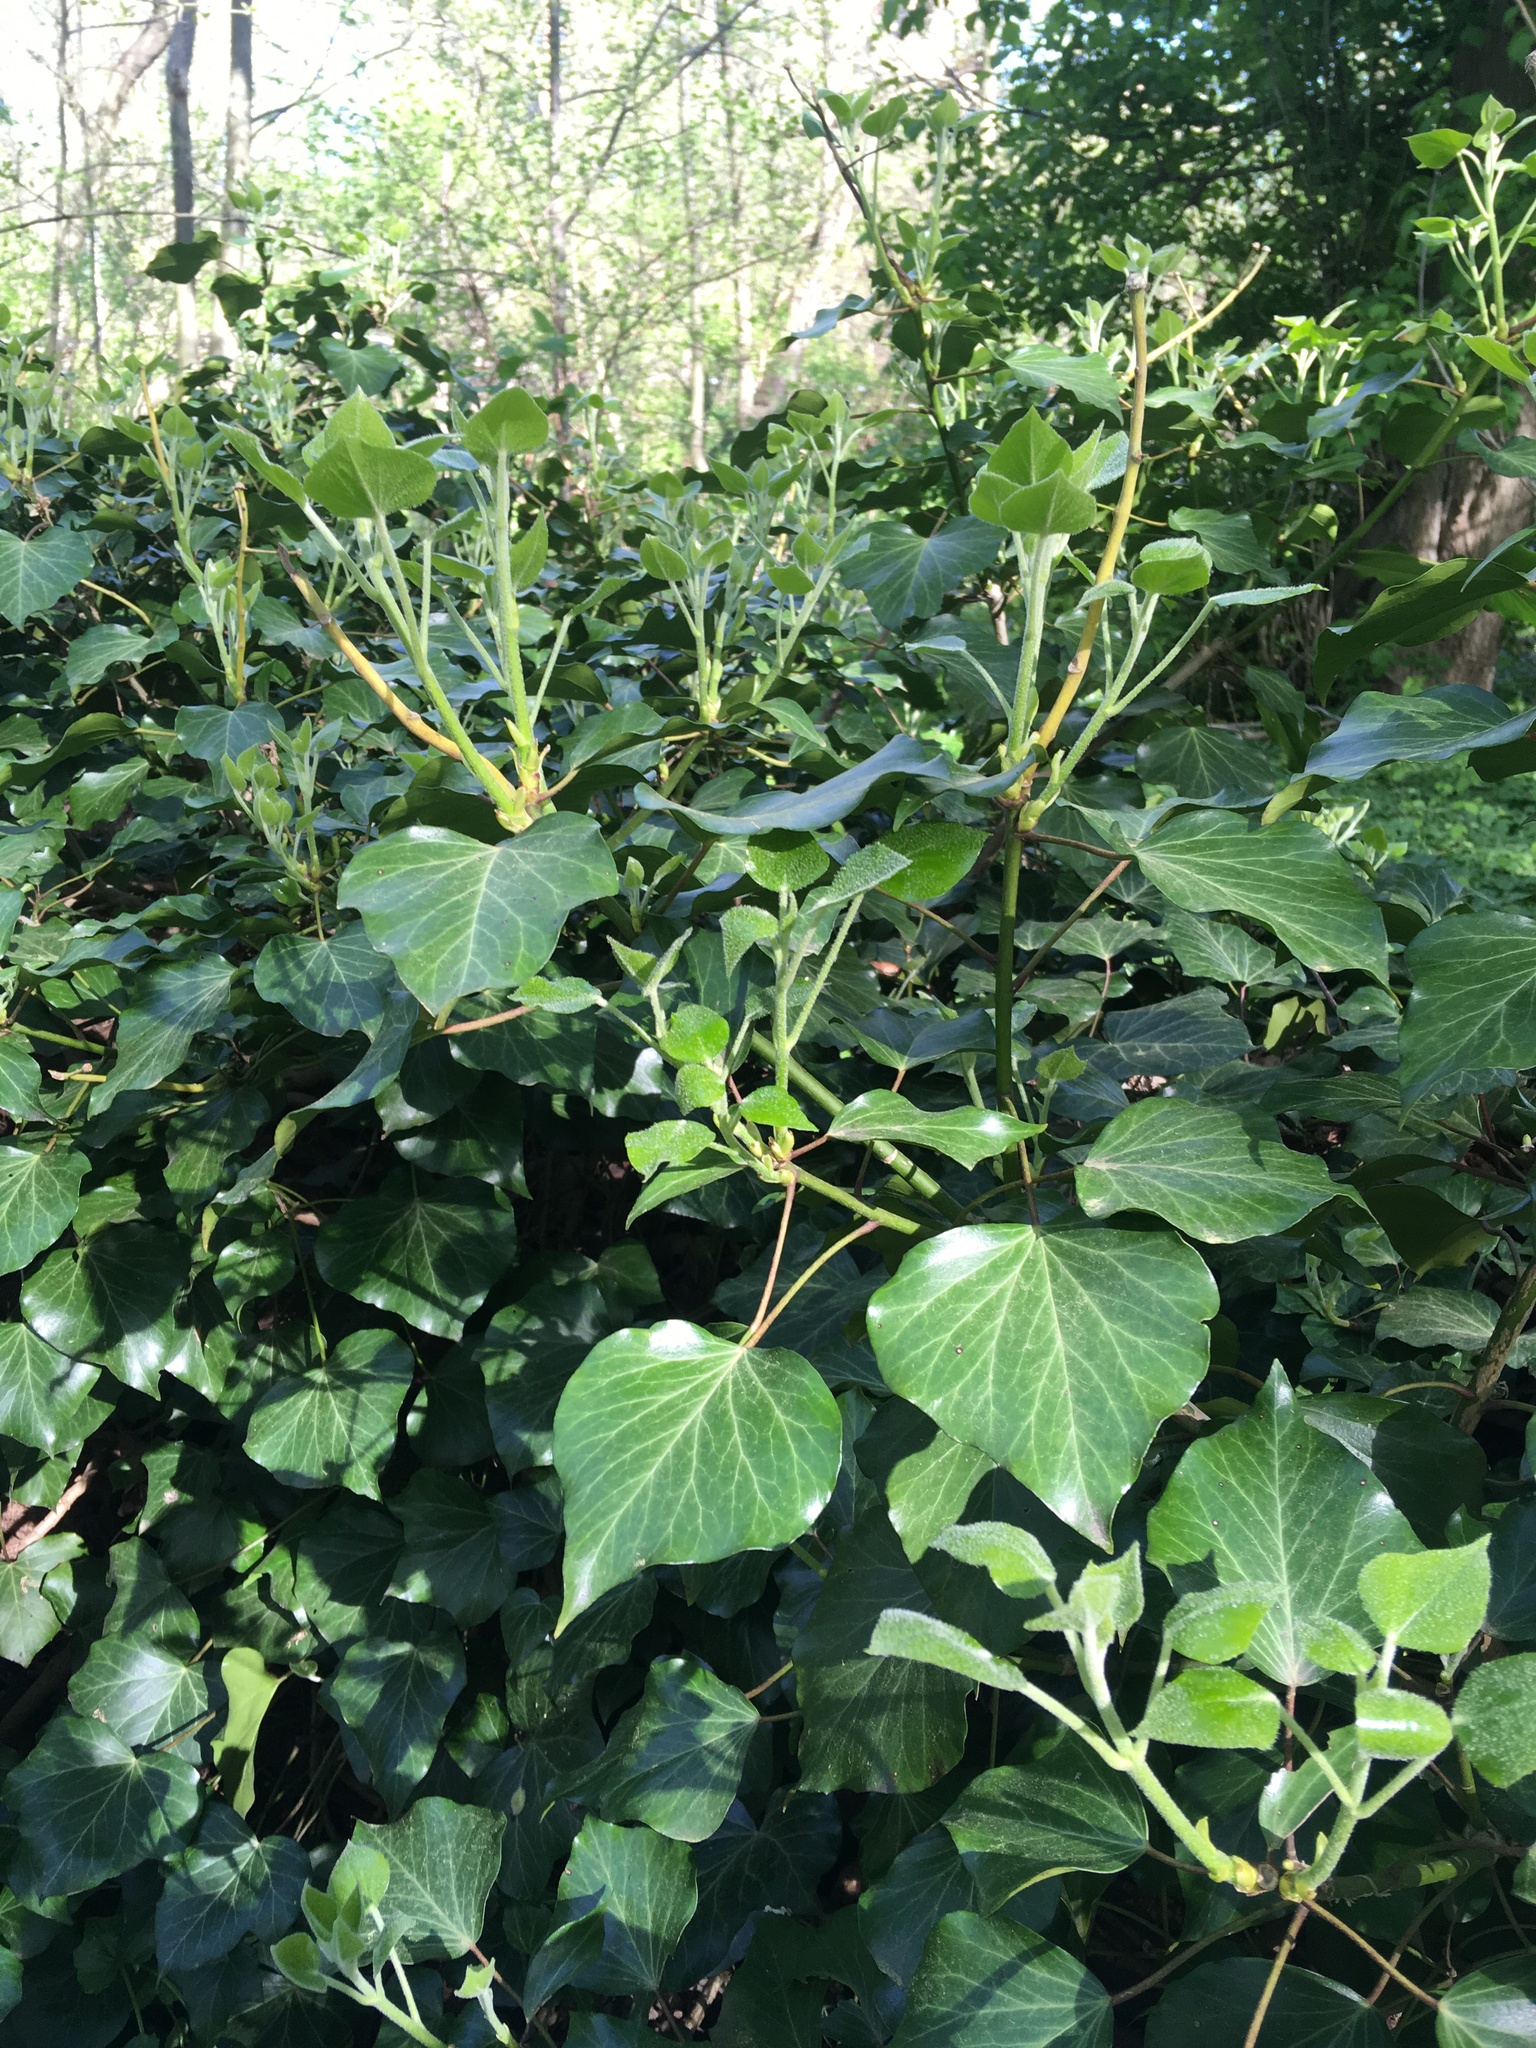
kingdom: Plantae
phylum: Tracheophyta
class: Magnoliopsida
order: Apiales
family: Araliaceae
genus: Hedera
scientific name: Hedera helix
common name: Ivy
